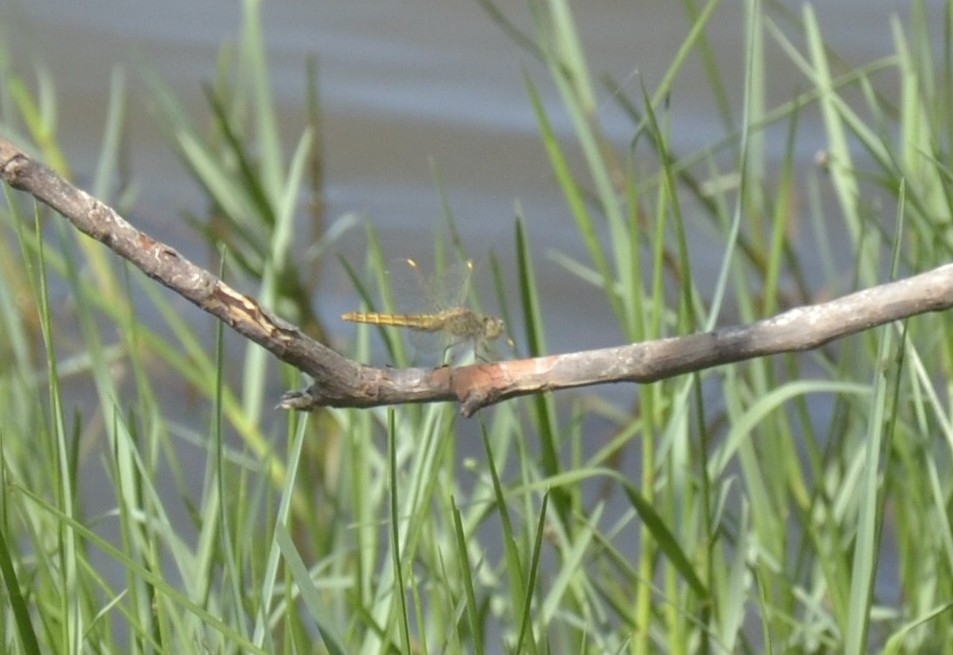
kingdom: Animalia
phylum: Arthropoda
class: Insecta
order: Odonata
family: Libellulidae
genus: Brachythemis
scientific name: Brachythemis contaminata
